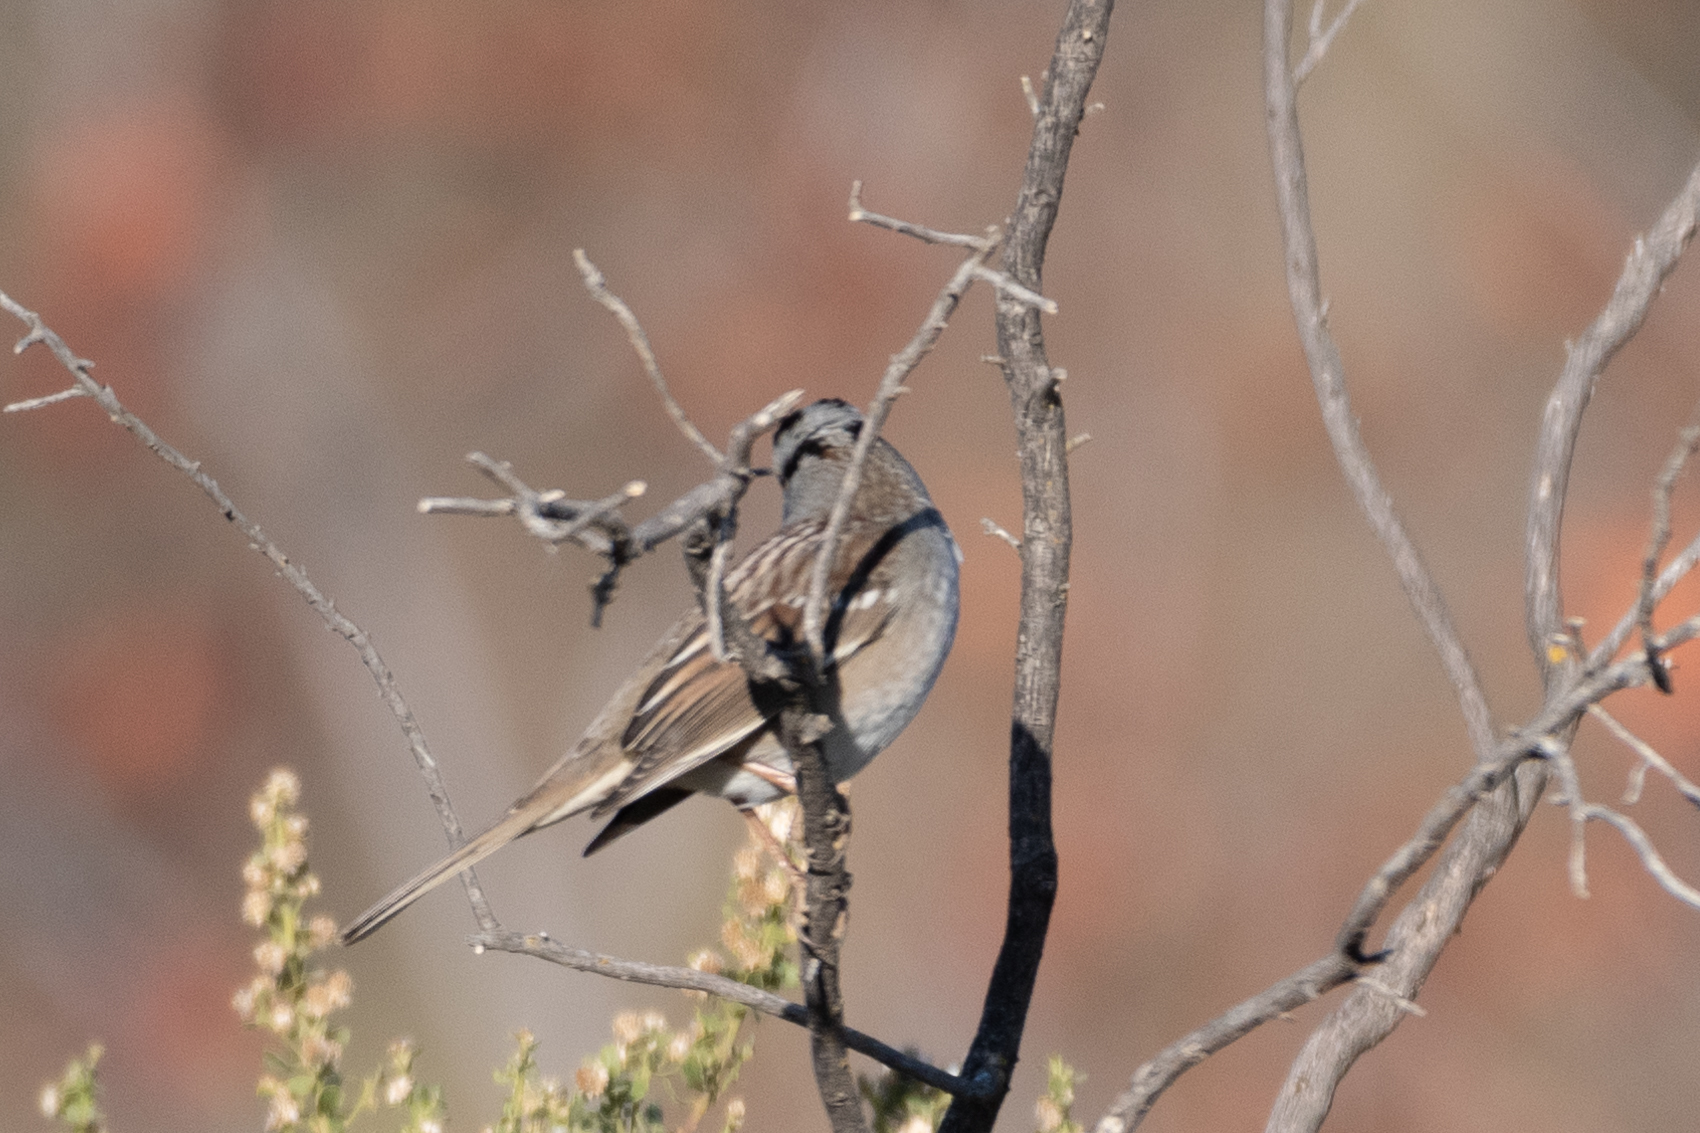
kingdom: Animalia
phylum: Chordata
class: Aves
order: Passeriformes
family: Passerellidae
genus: Zonotrichia
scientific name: Zonotrichia leucophrys
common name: White-crowned sparrow
